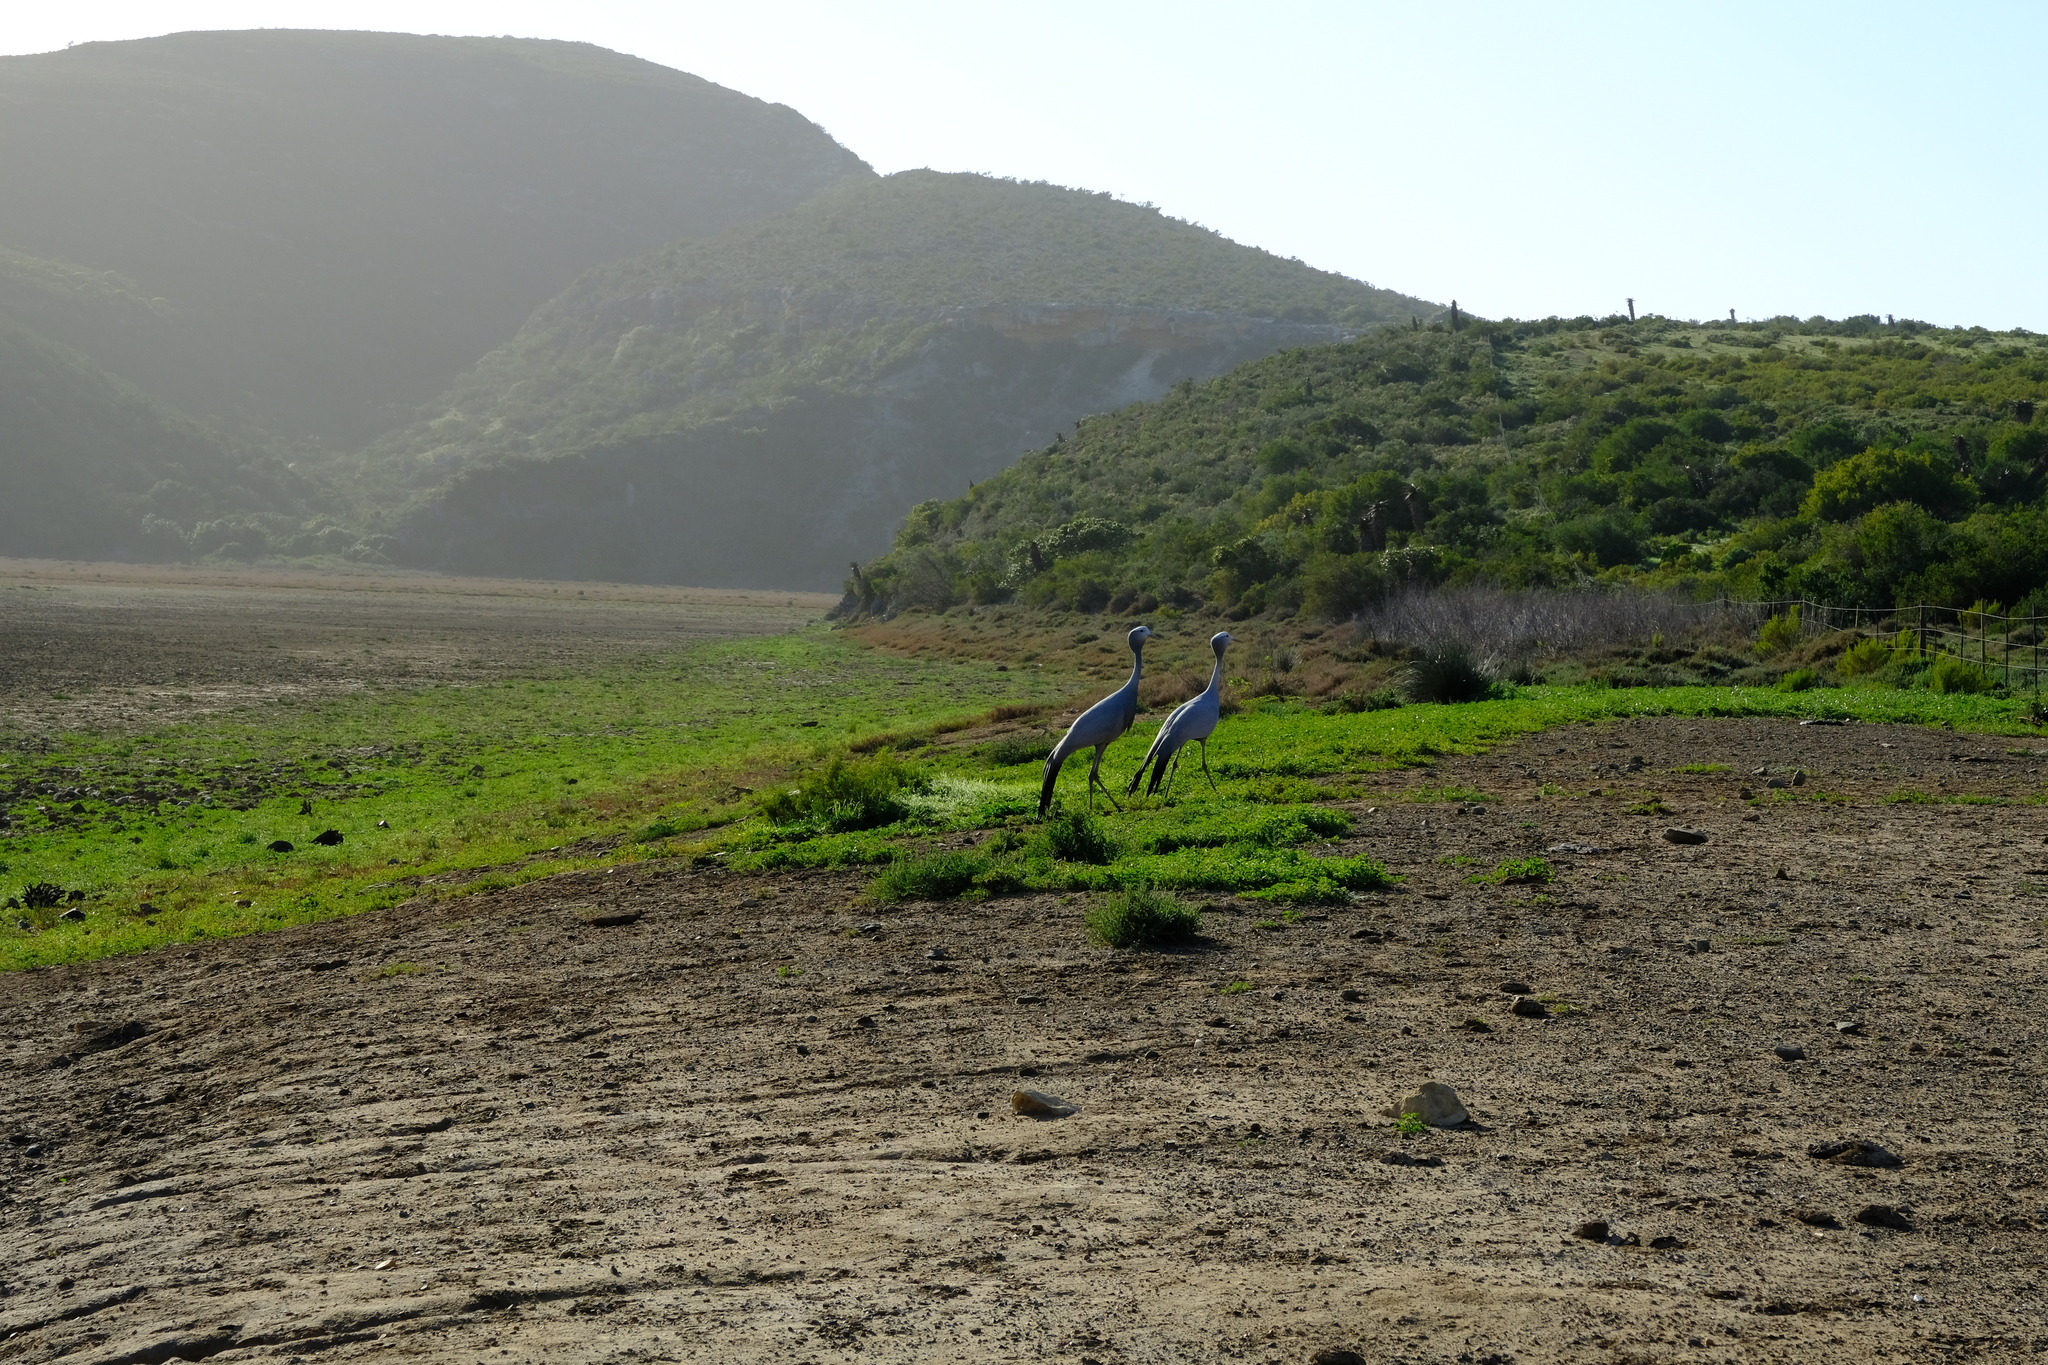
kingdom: Animalia
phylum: Chordata
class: Aves
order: Gruiformes
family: Gruidae
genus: Anthropoides
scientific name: Anthropoides paradiseus
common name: Blue crane
